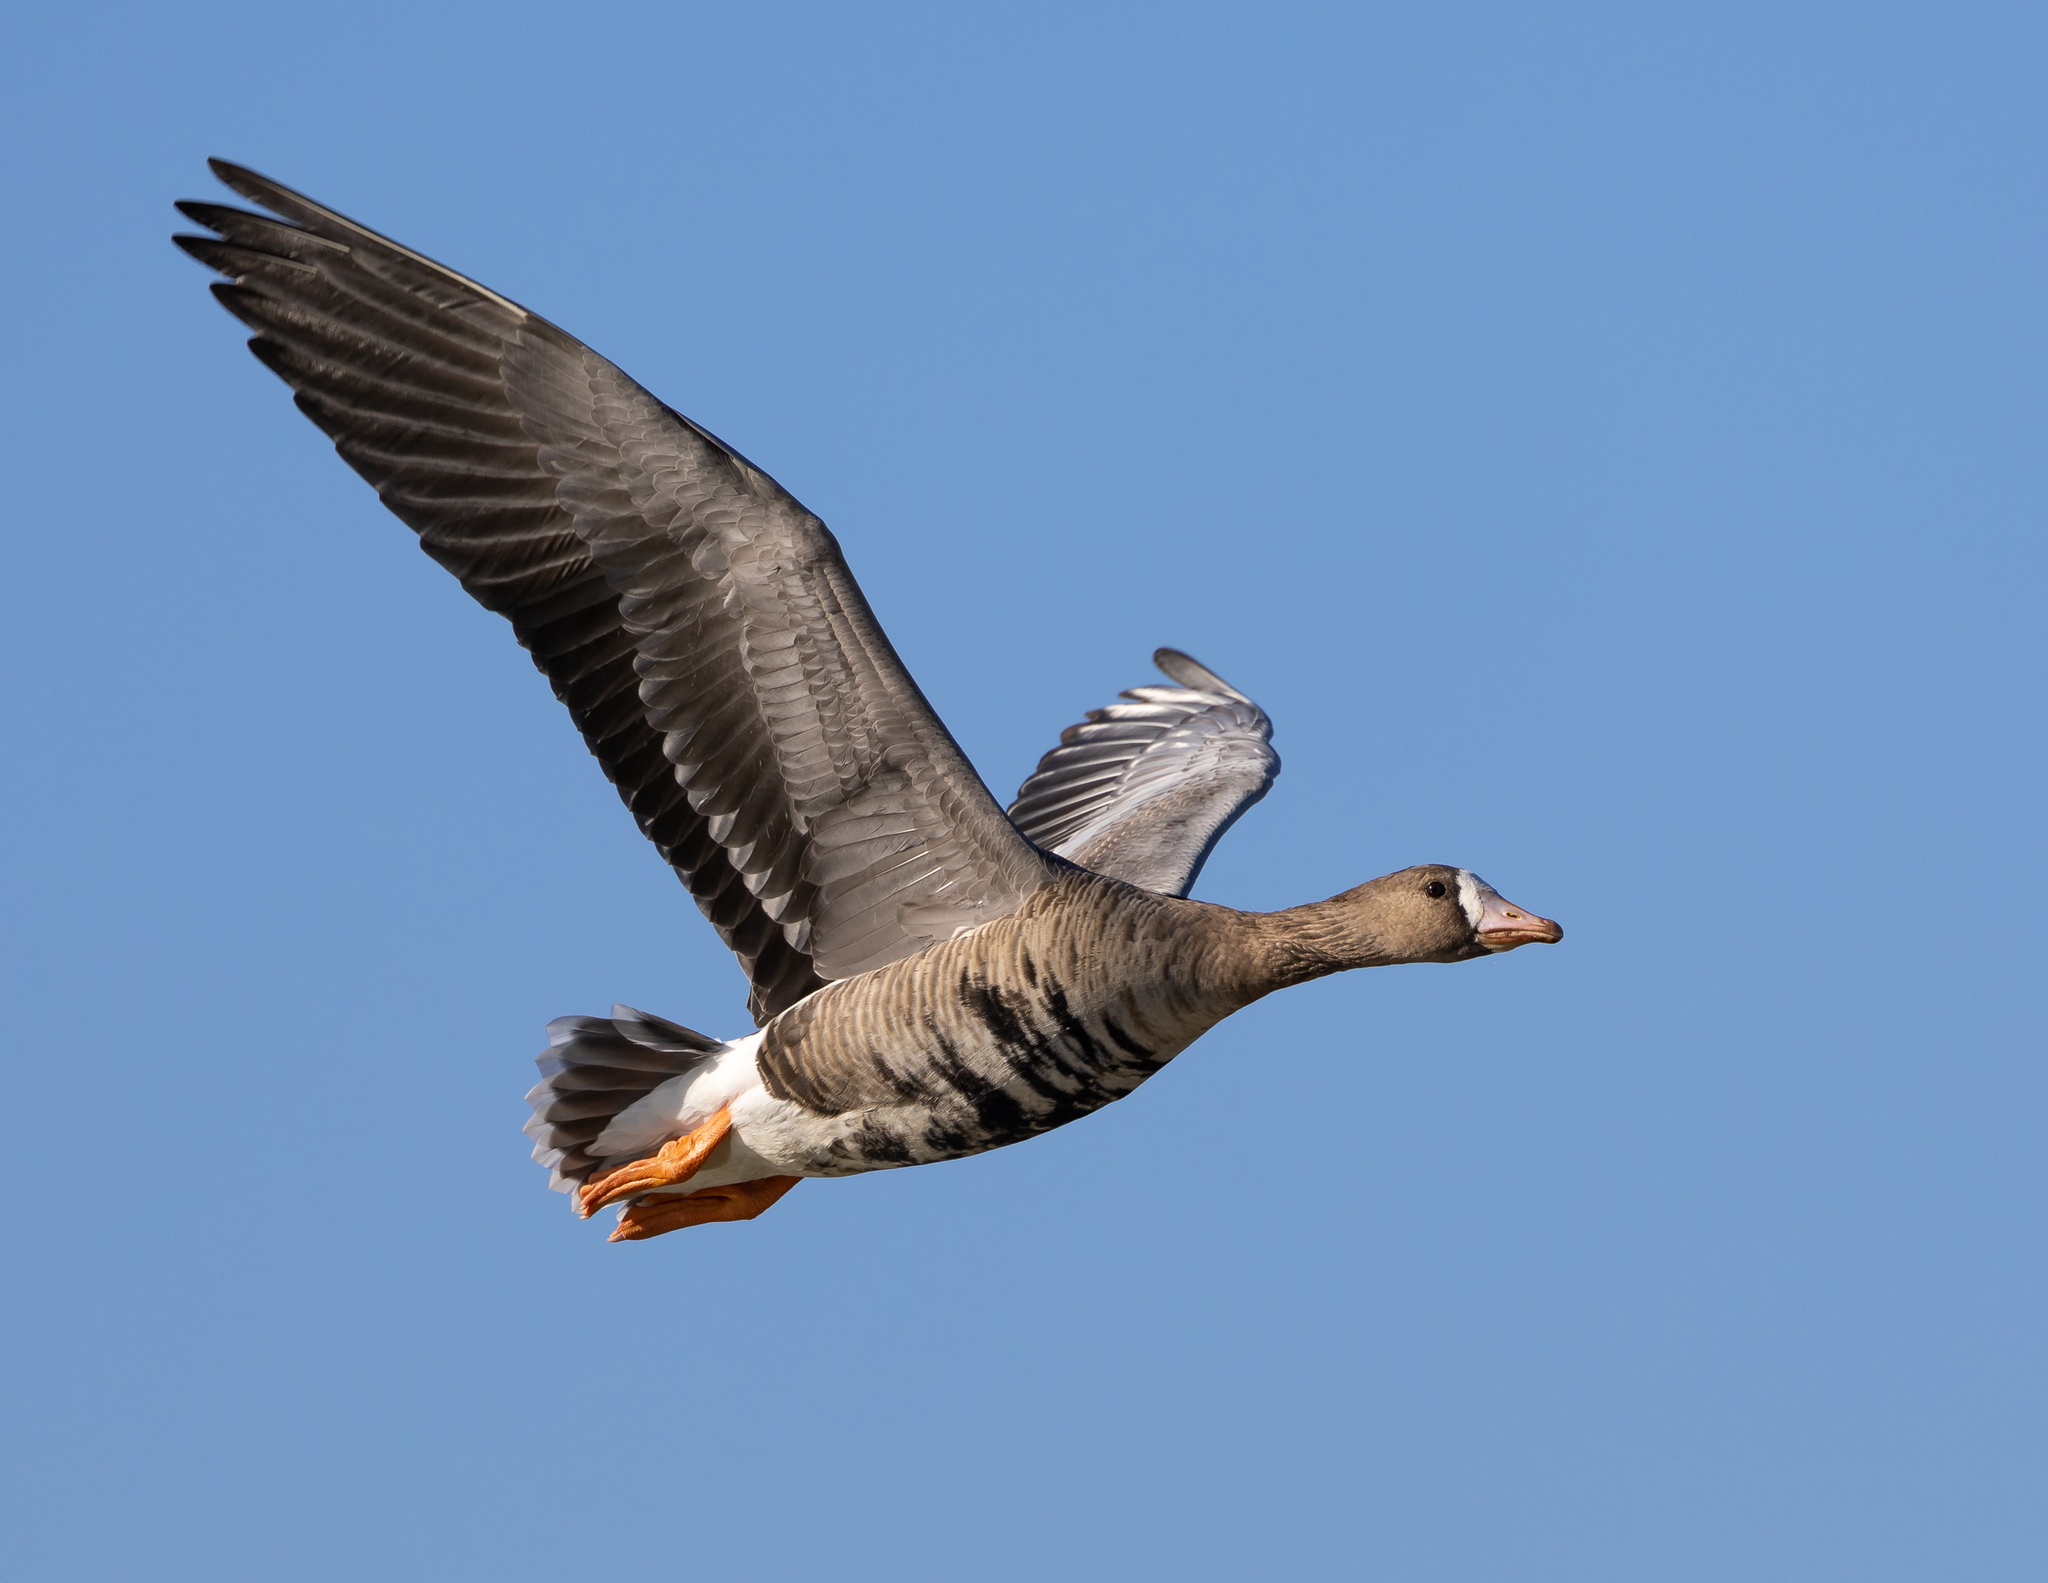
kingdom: Animalia
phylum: Chordata
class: Aves
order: Anseriformes
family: Anatidae
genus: Anser
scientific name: Anser albifrons
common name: Greater white-fronted goose
